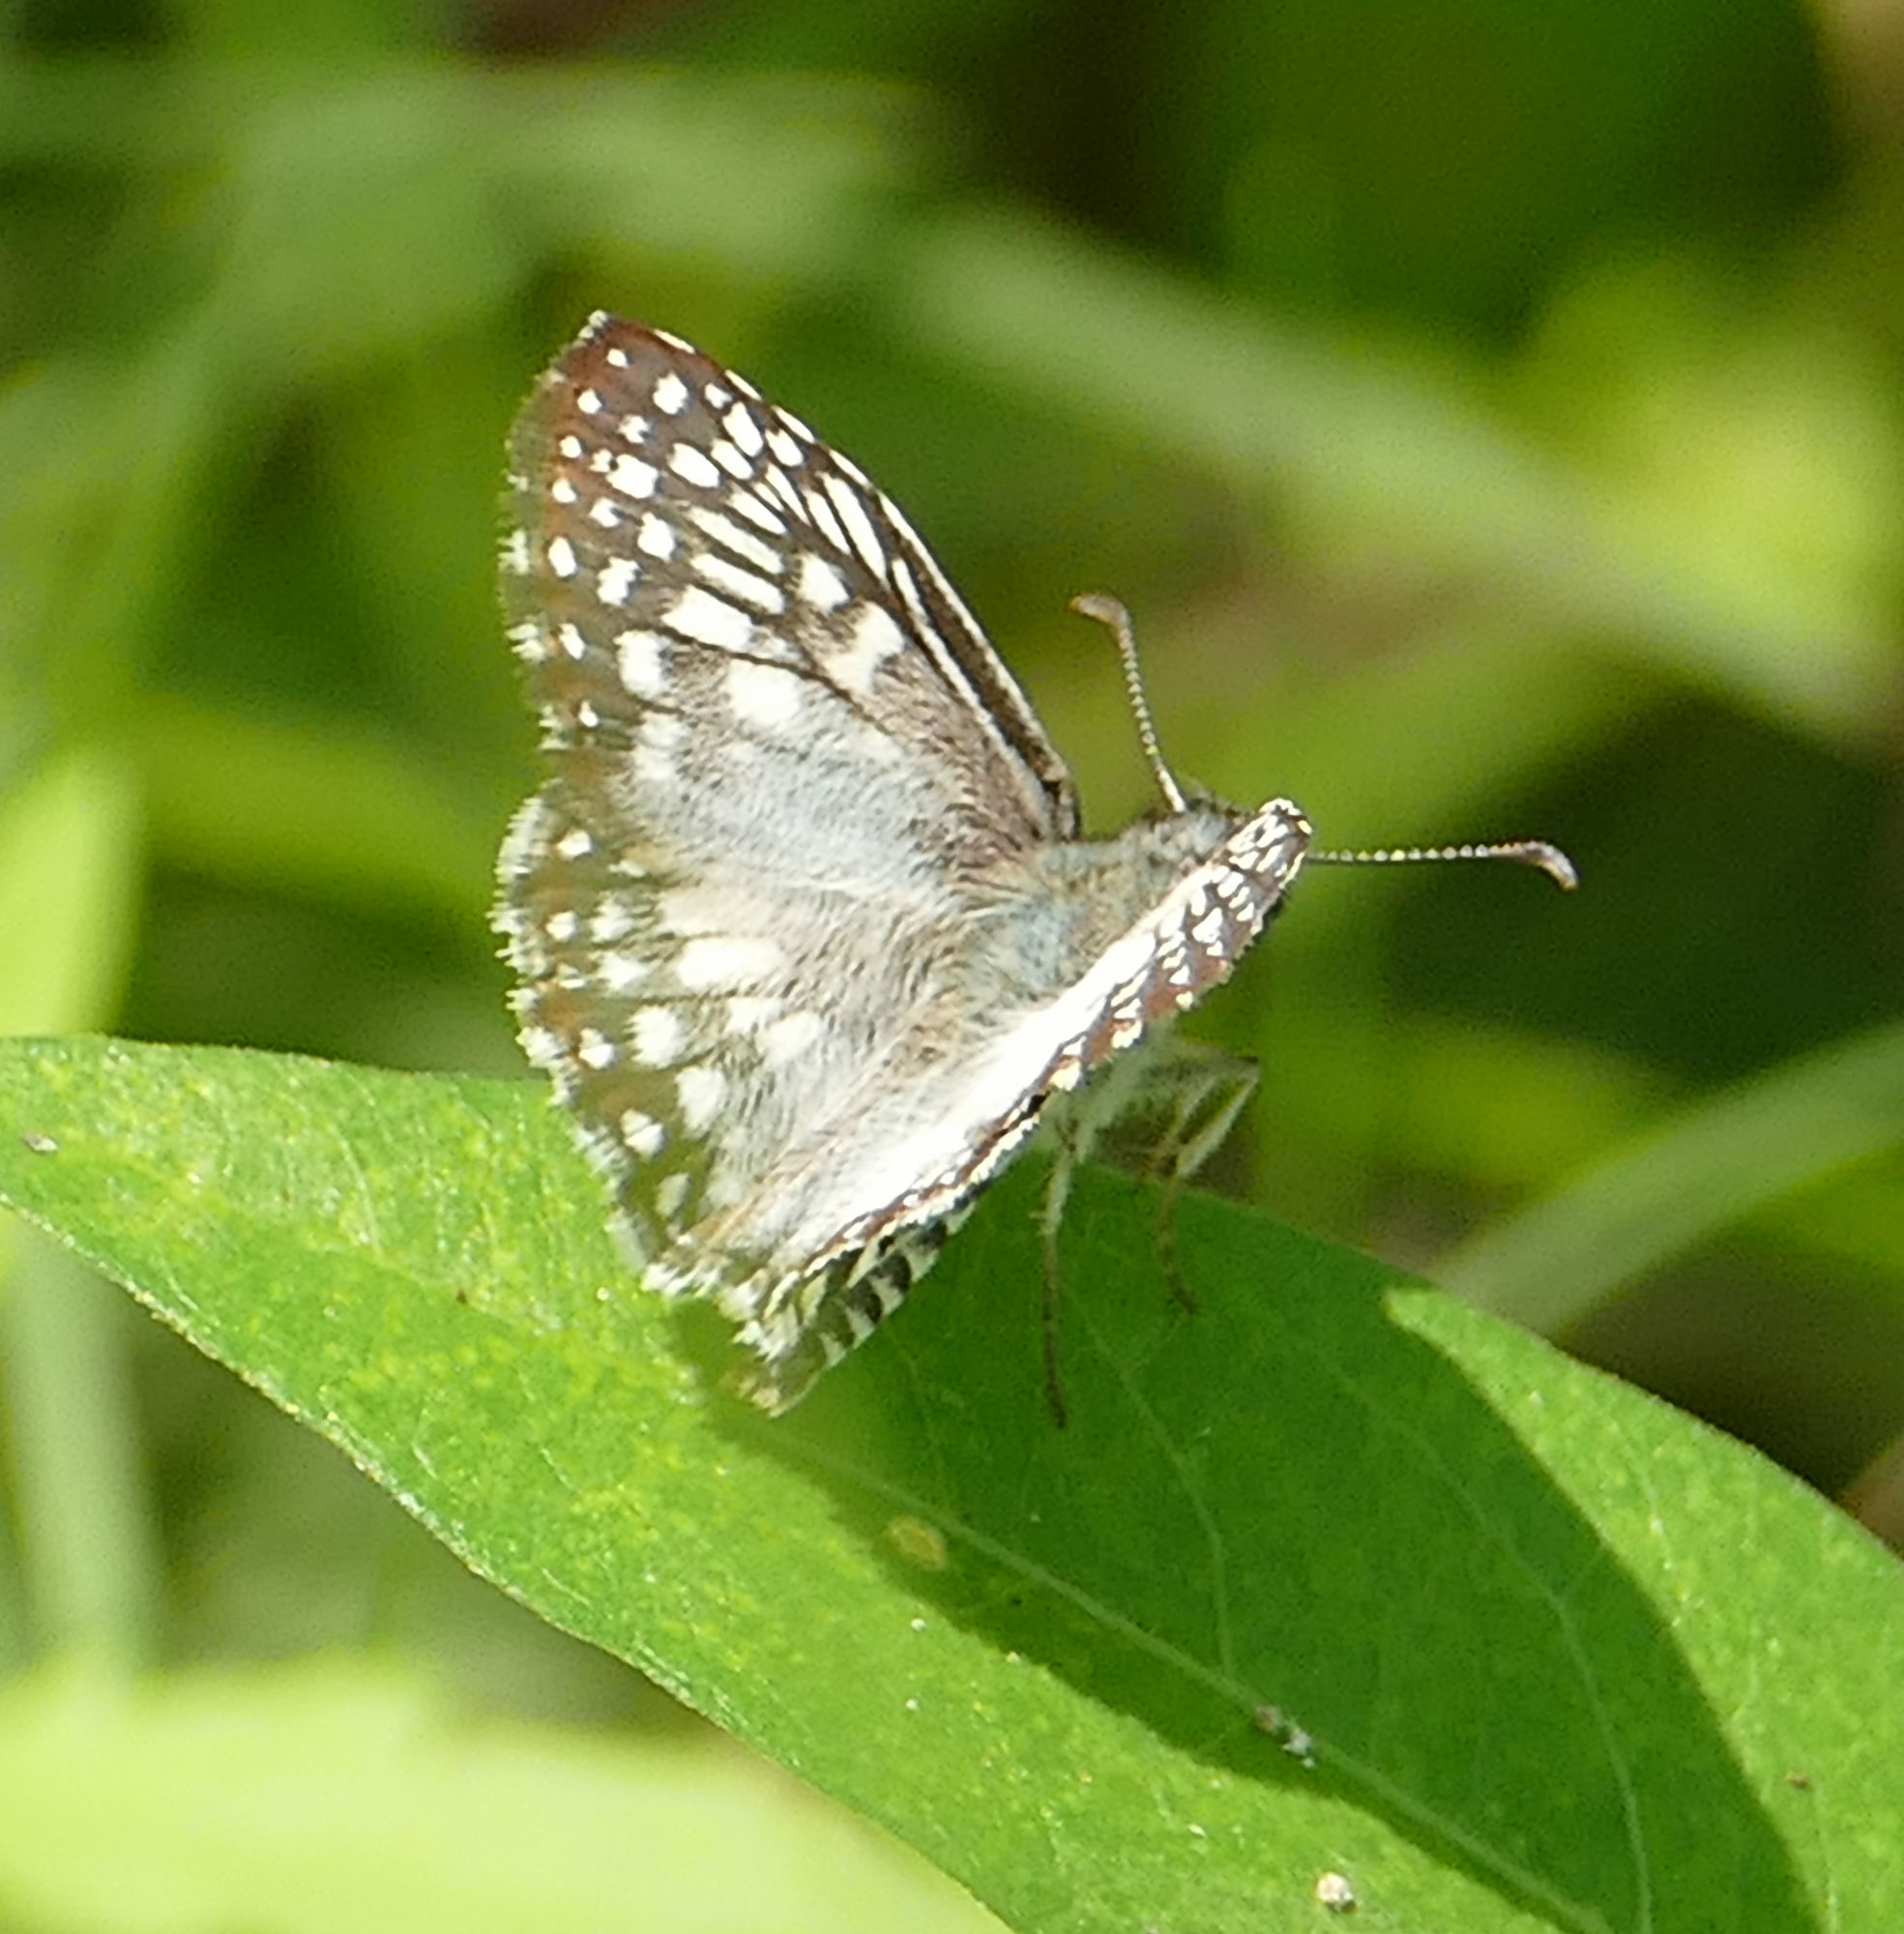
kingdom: Animalia
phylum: Arthropoda
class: Insecta
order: Lepidoptera
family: Hesperiidae
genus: Pyrgus
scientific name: Pyrgus oileus
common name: Tropical checkered-skipper
